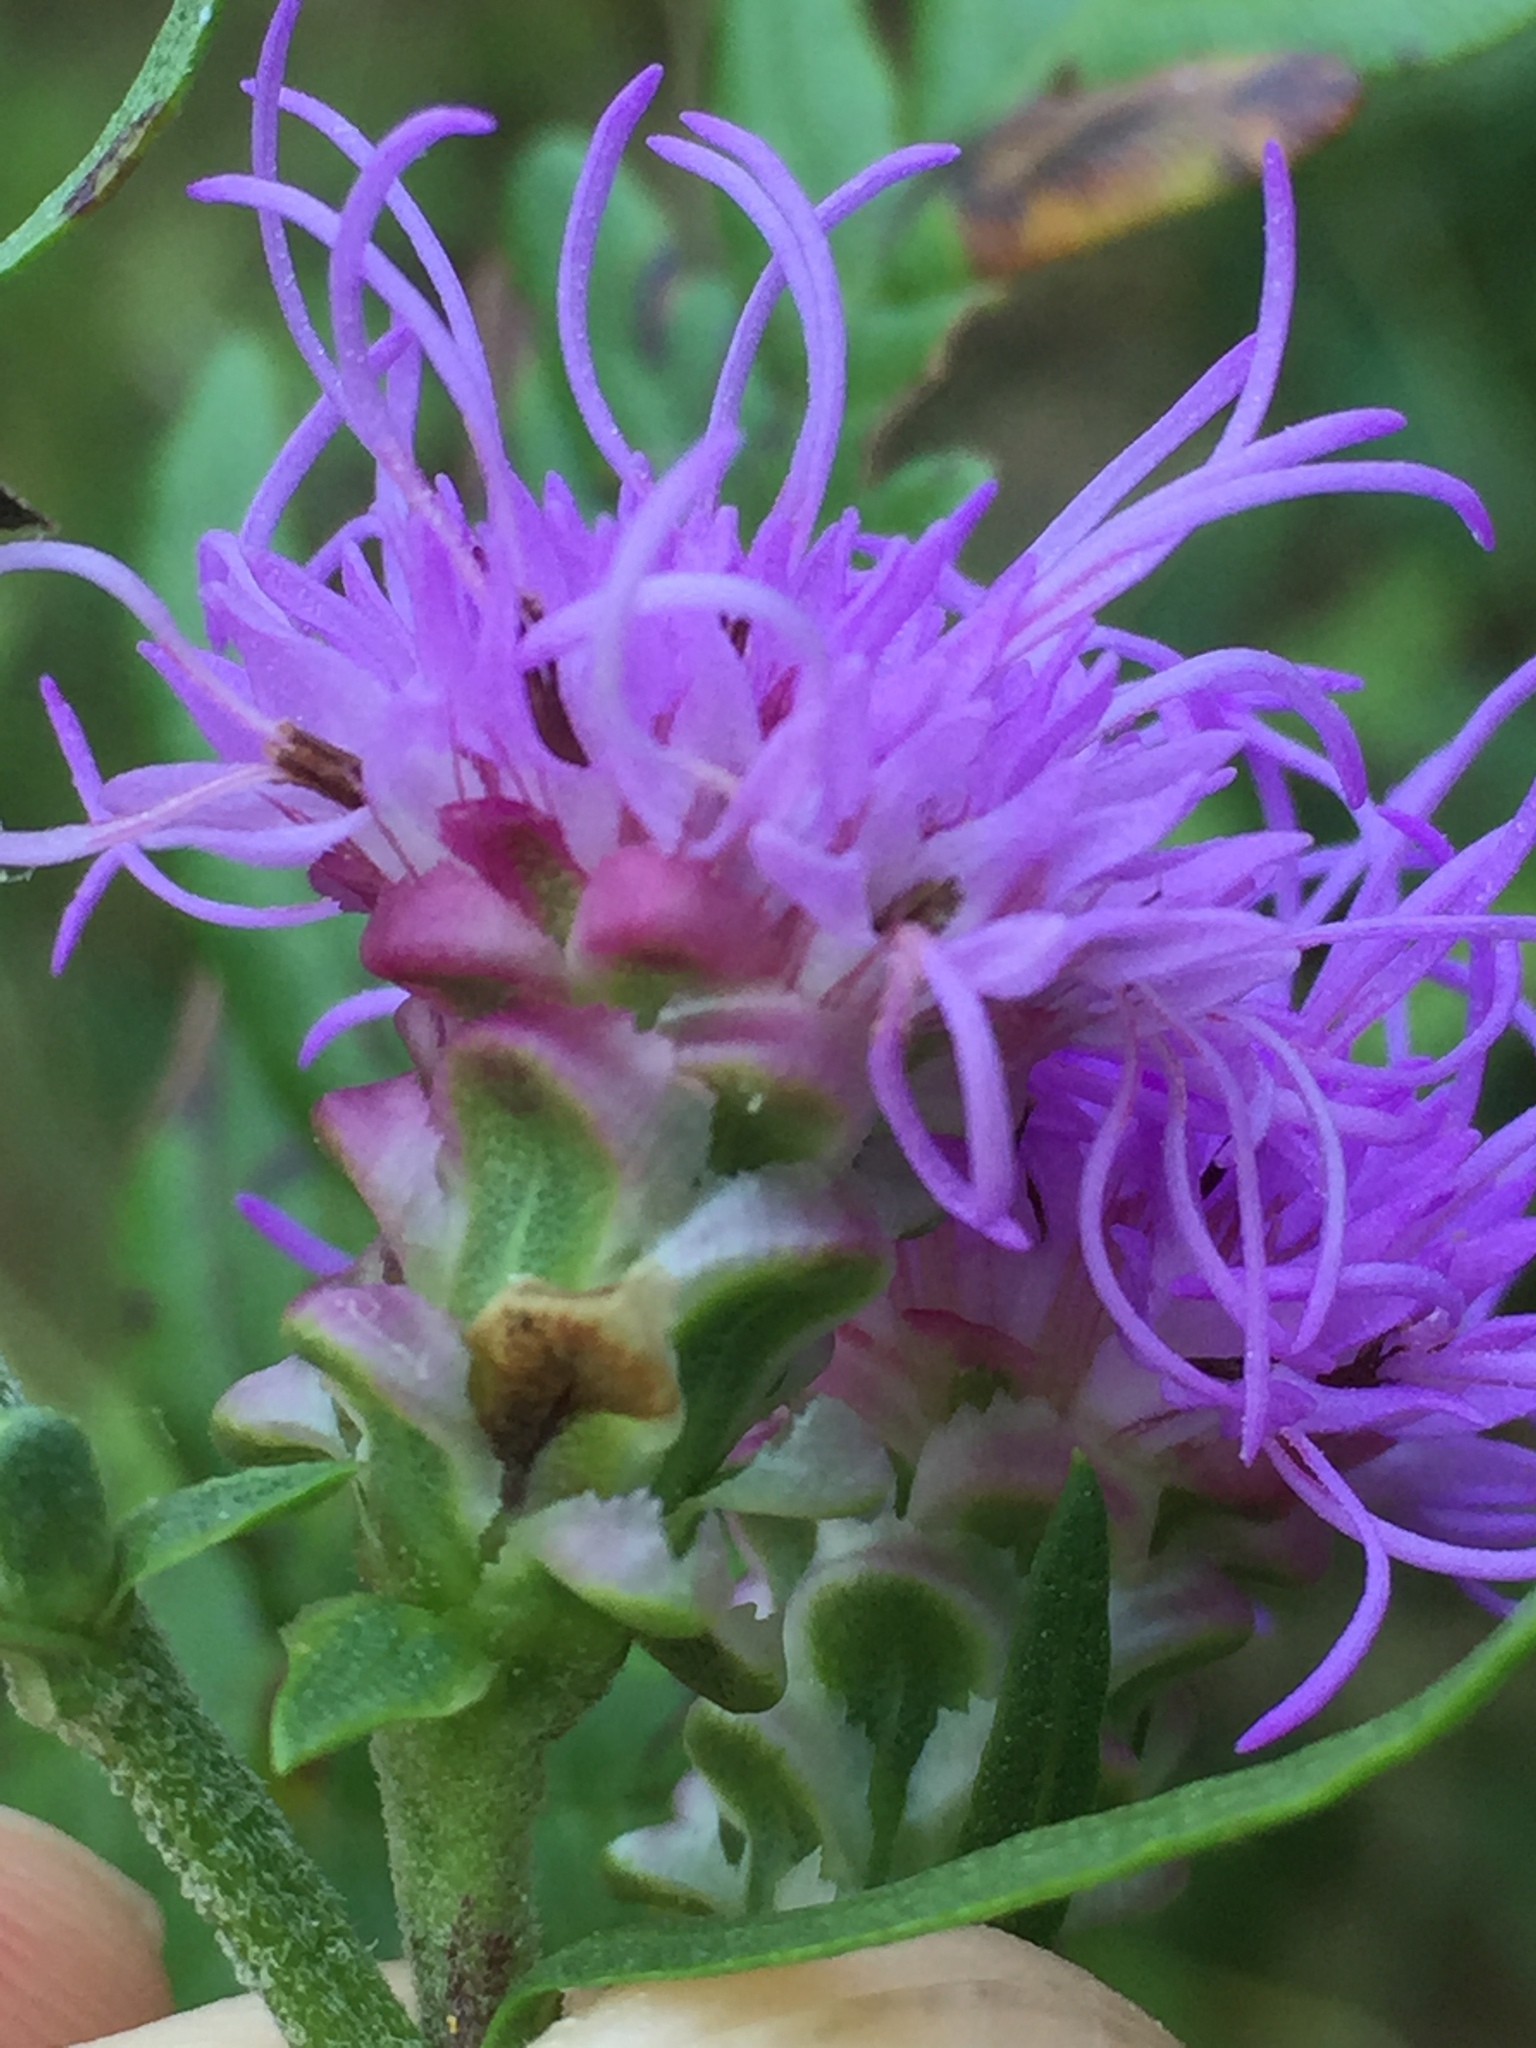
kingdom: Plantae
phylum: Tracheophyta
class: Magnoliopsida
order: Asterales
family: Asteraceae
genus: Liatris
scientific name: Liatris aspera
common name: Lacerate blazing-star
